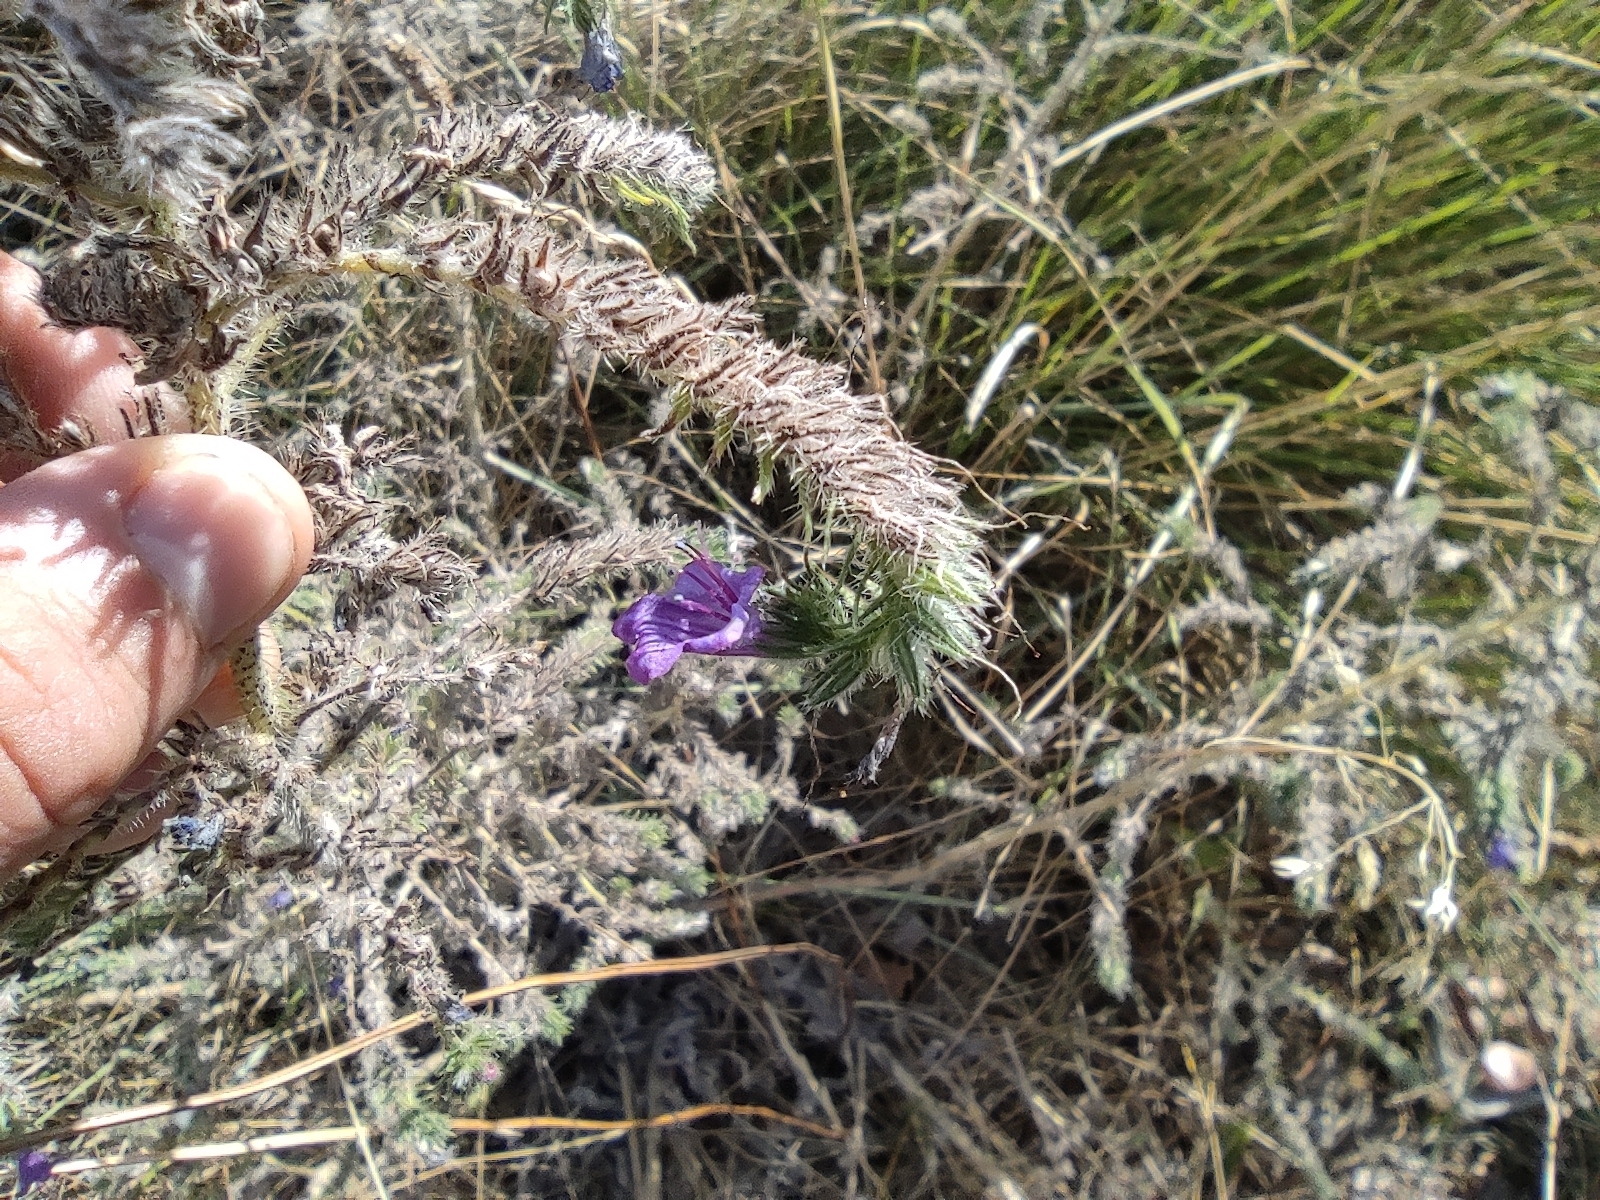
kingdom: Plantae
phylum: Tracheophyta
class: Magnoliopsida
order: Boraginales
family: Boraginaceae
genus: Echium
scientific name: Echium vulgare
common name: Common viper's bugloss
